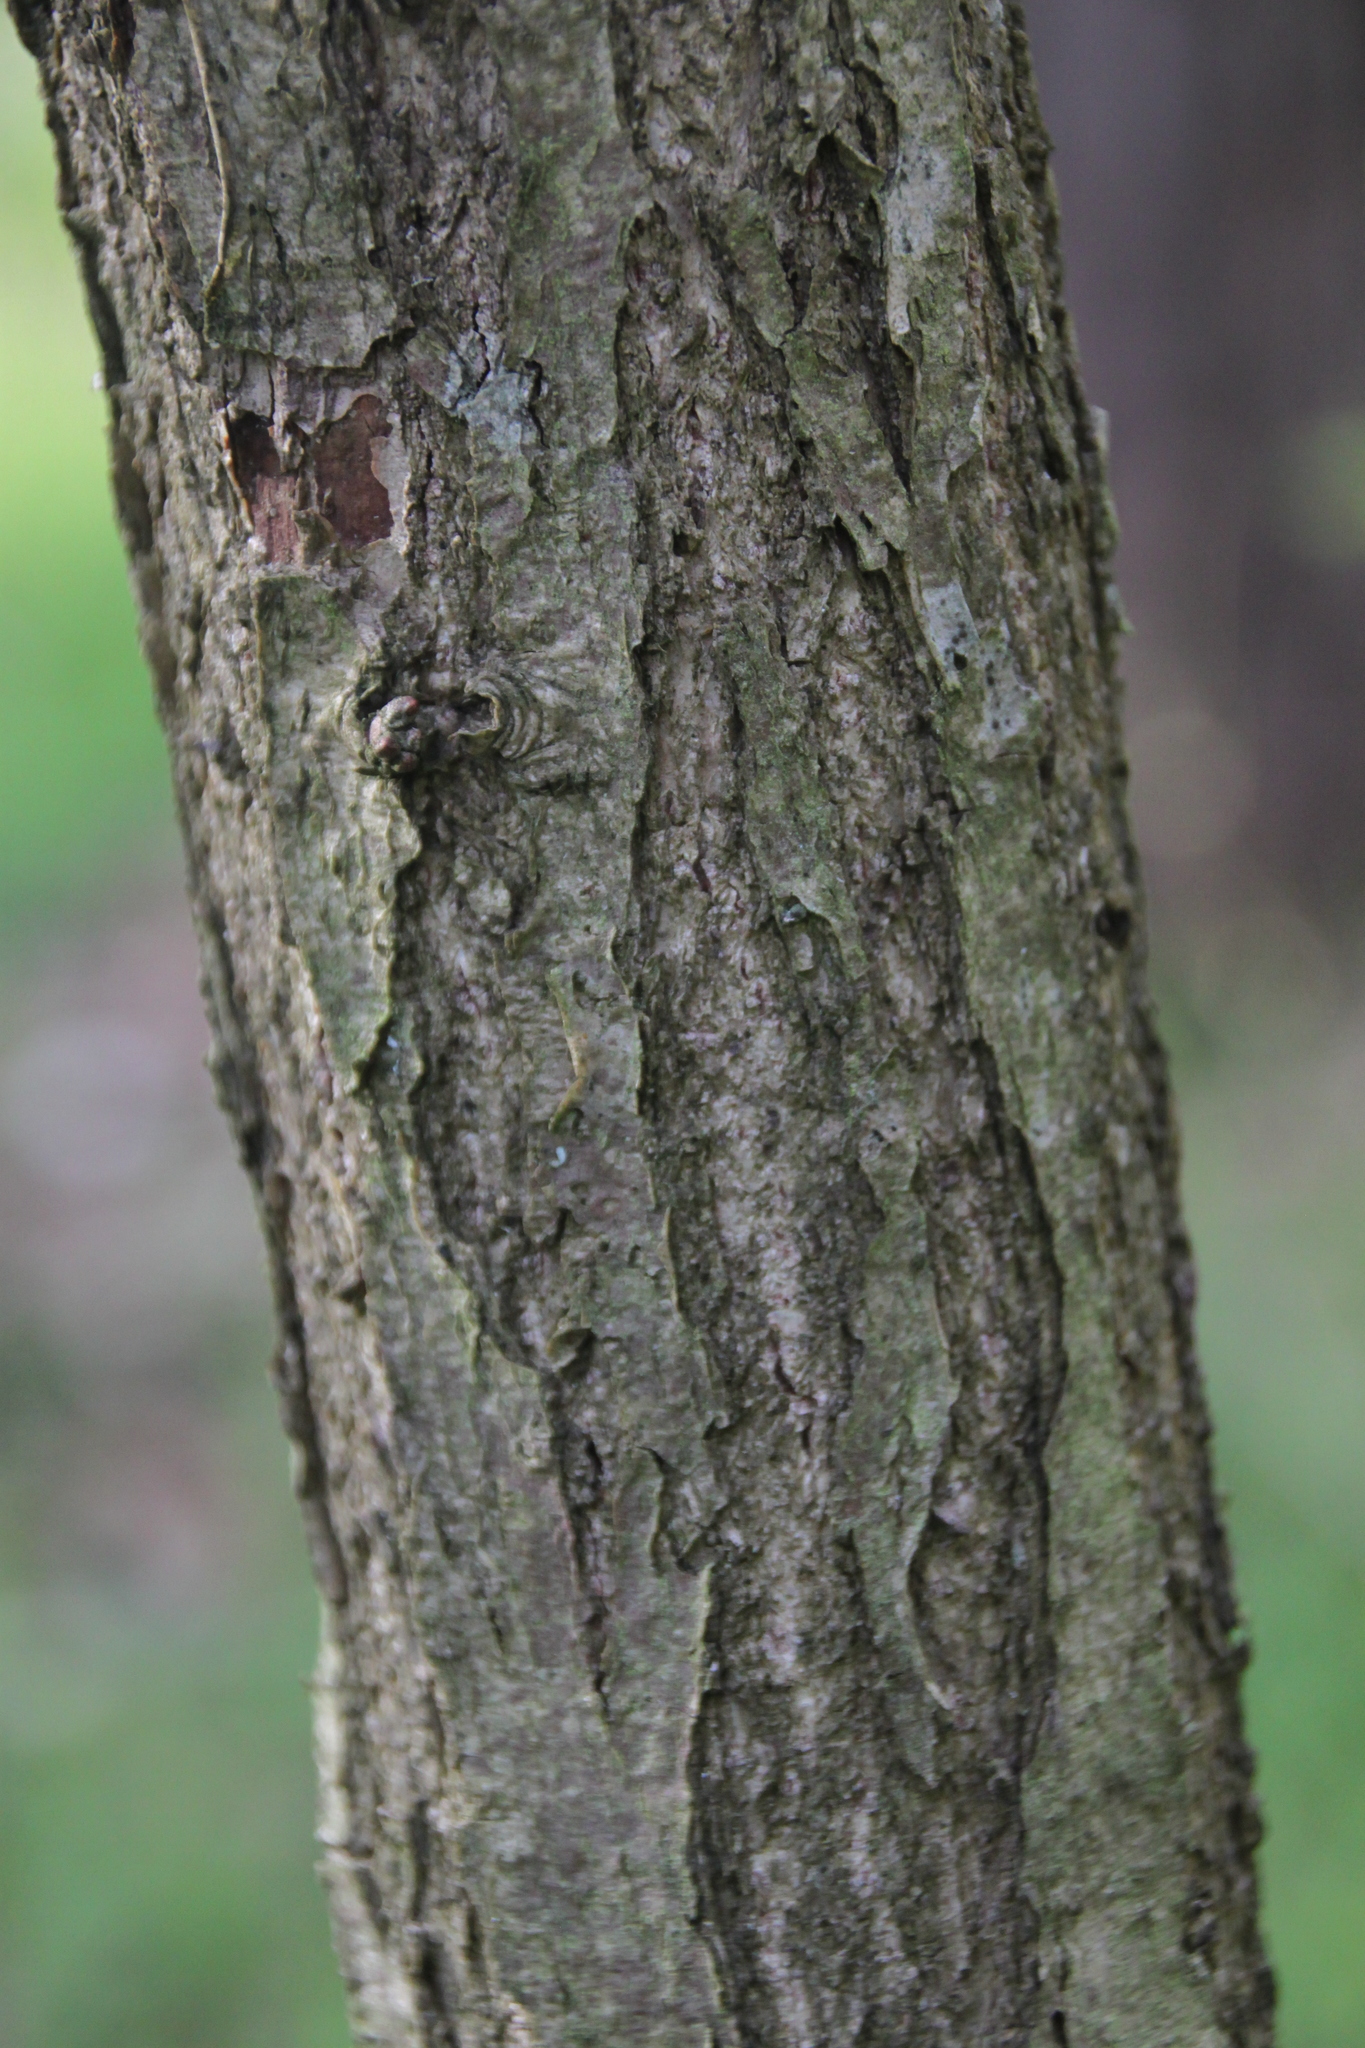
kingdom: Plantae
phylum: Tracheophyta
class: Magnoliopsida
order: Fagales
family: Fagaceae
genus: Quercus
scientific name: Quercus robur
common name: Pedunculate oak
